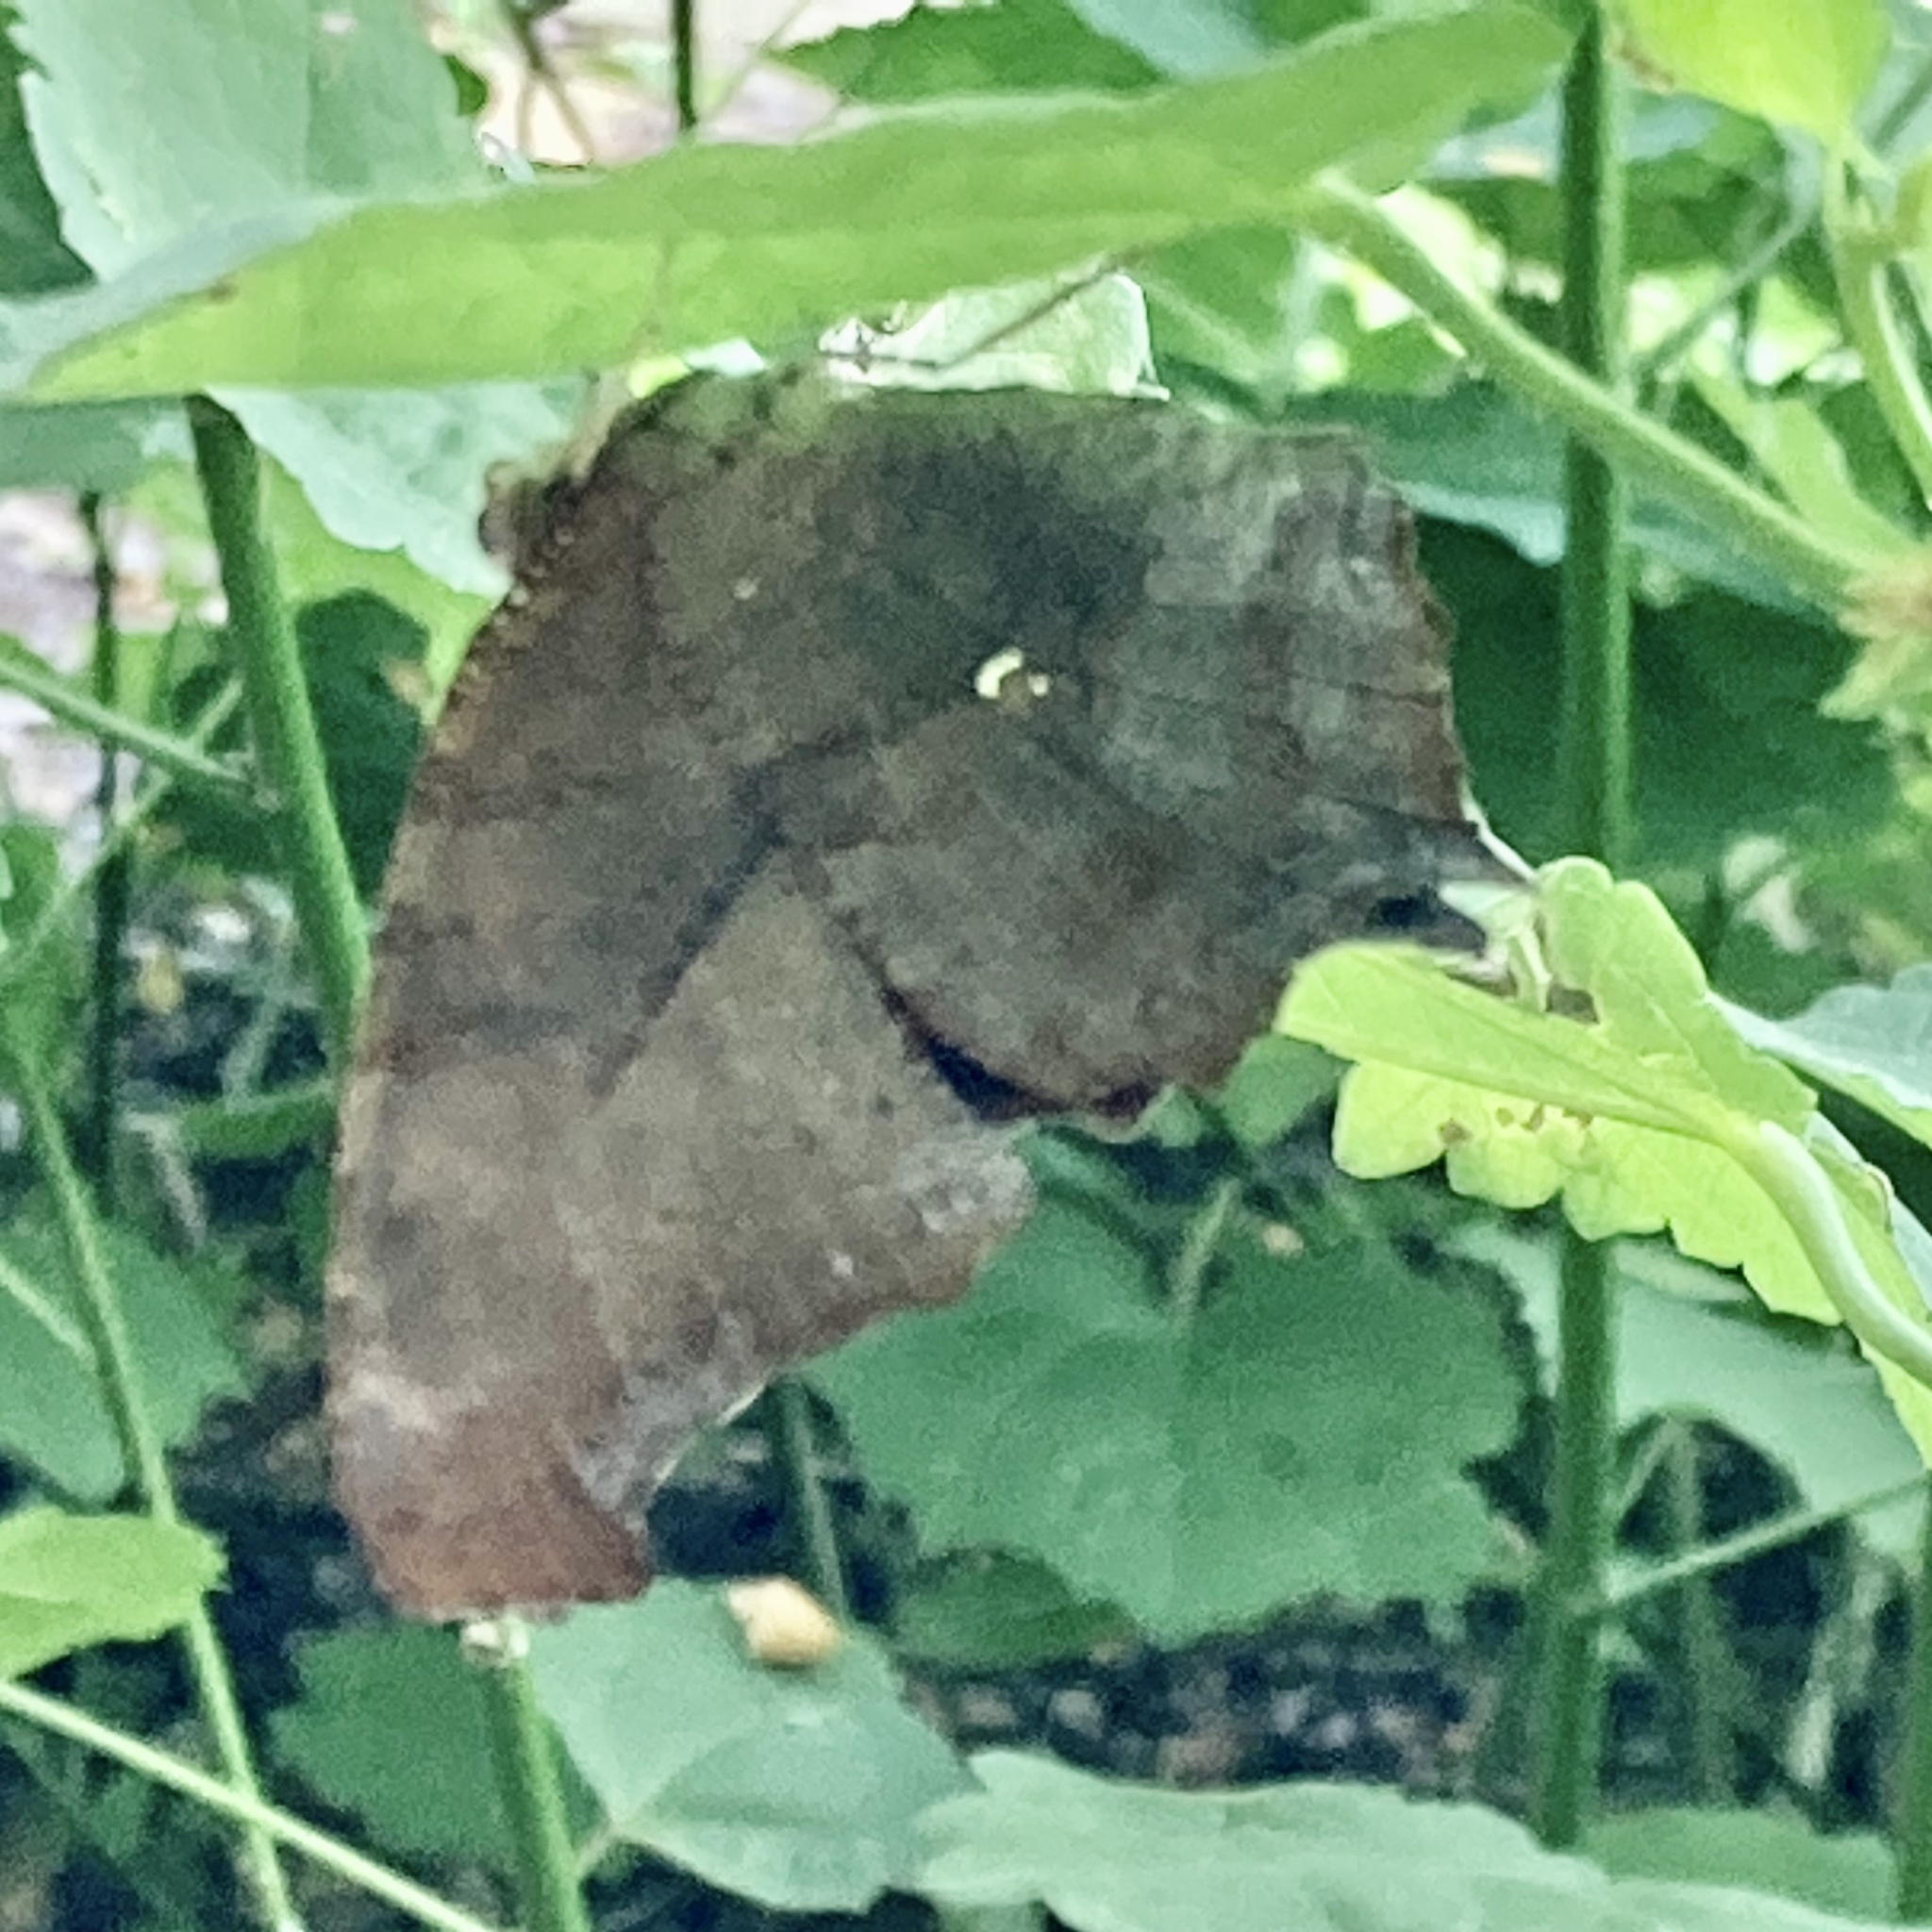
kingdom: Animalia
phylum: Arthropoda
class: Insecta
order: Lepidoptera
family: Nymphalidae
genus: Polygonia
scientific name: Polygonia interrogationis
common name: Question mark
